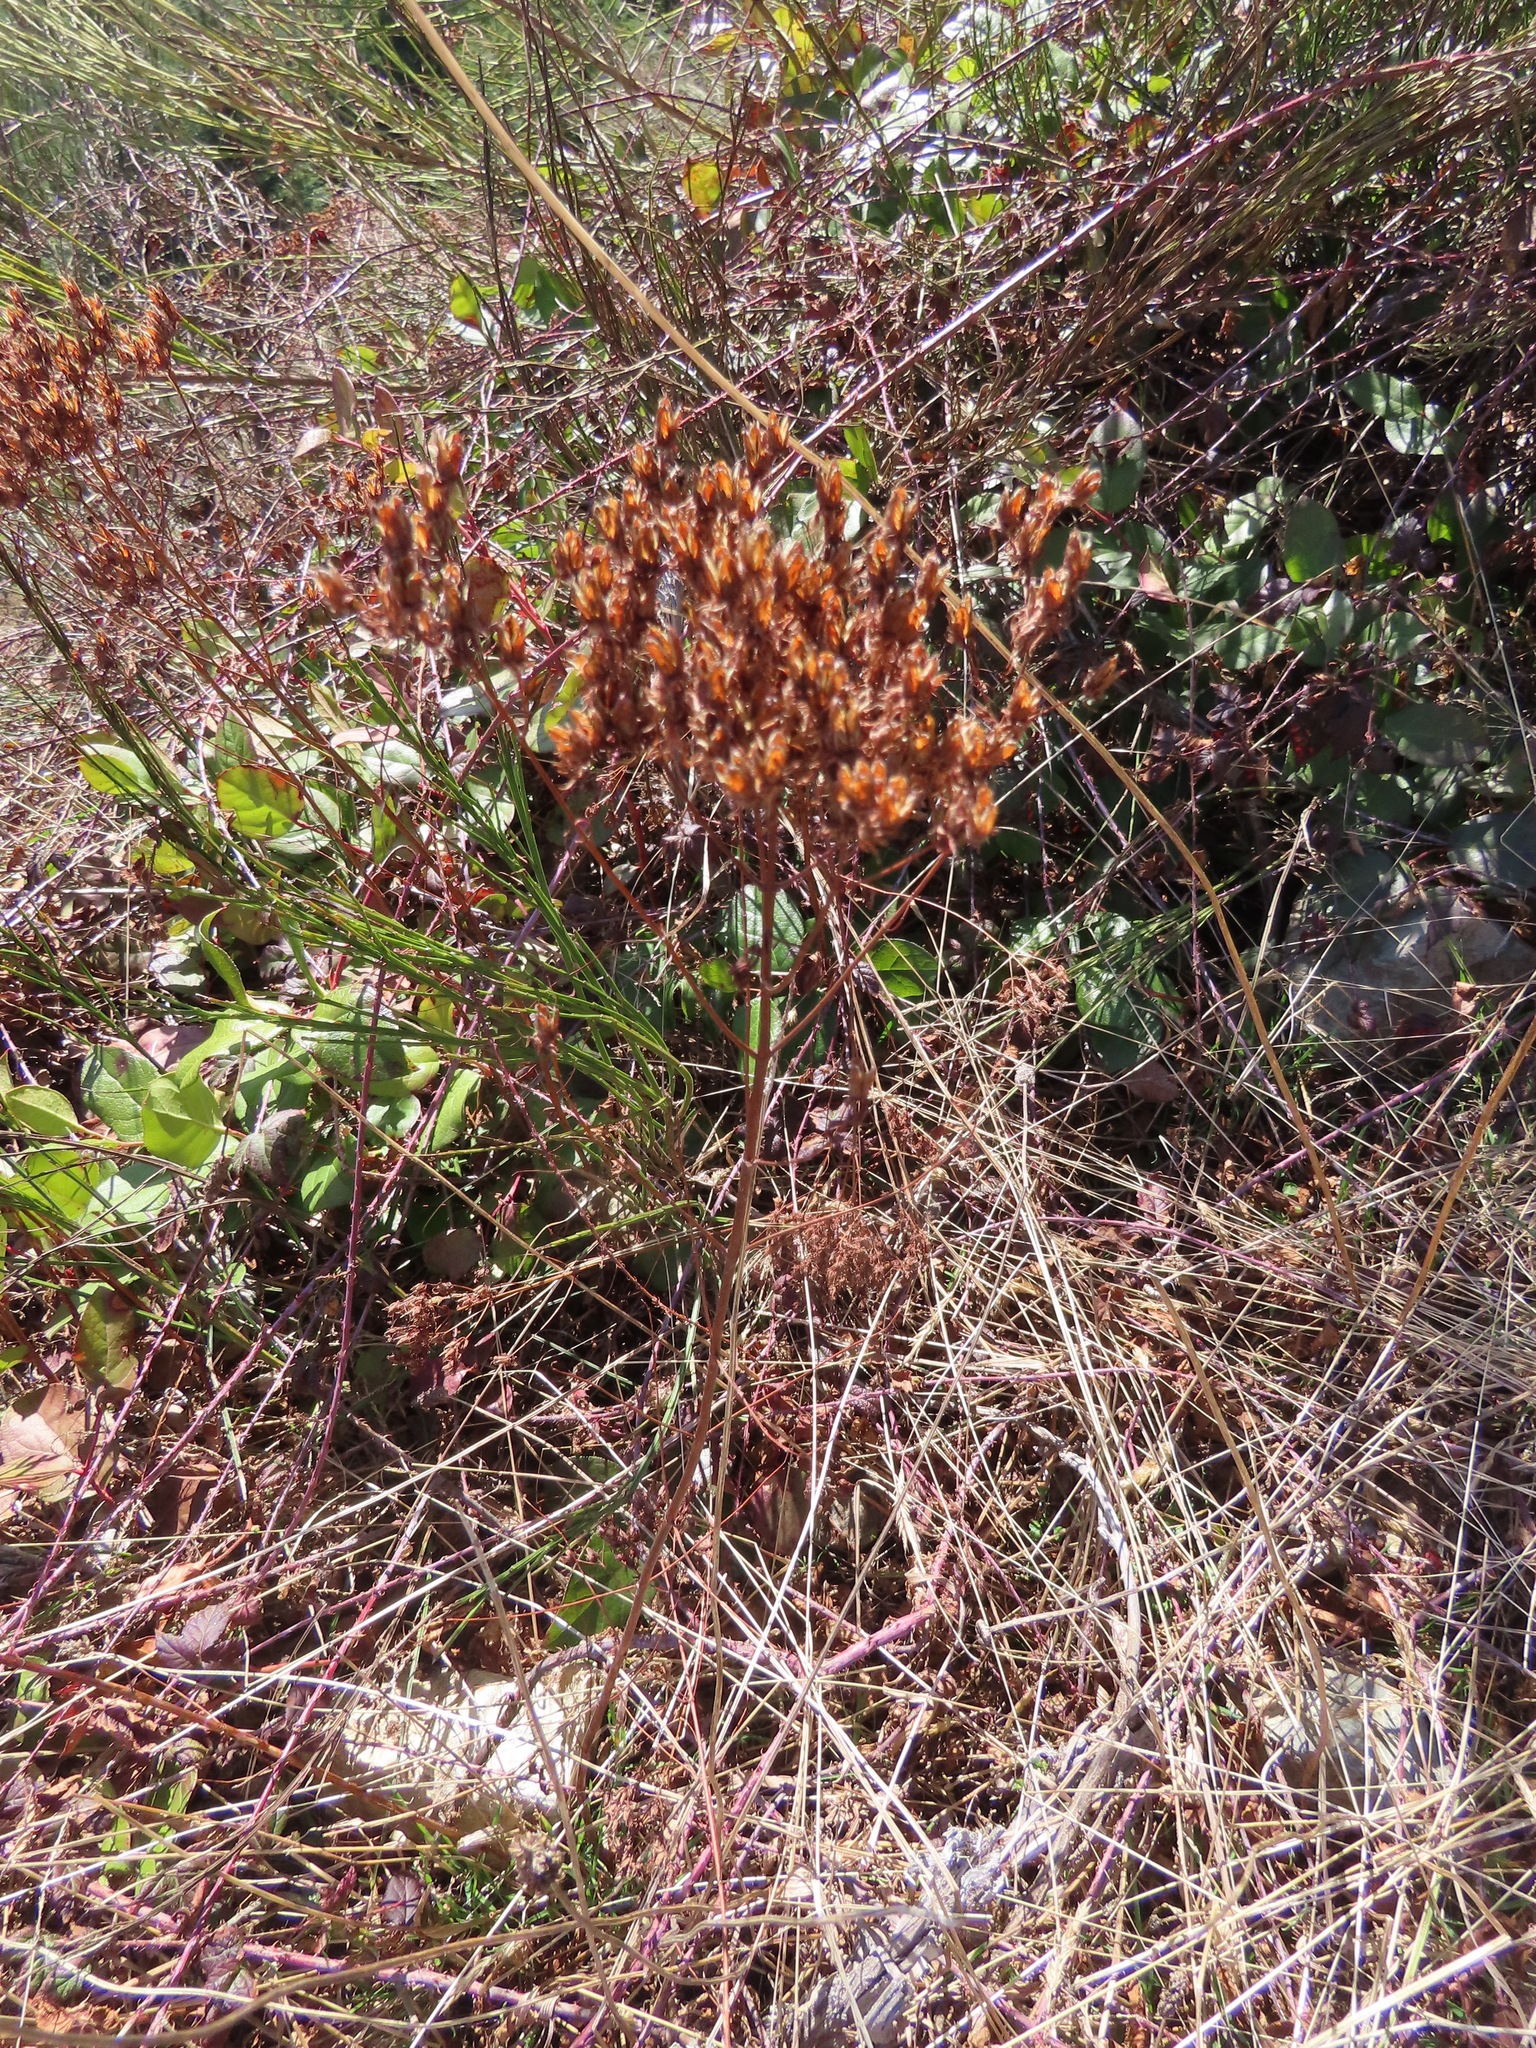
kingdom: Plantae
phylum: Tracheophyta
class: Magnoliopsida
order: Malpighiales
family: Hypericaceae
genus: Hypericum
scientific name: Hypericum perforatum
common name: Common st. johnswort
